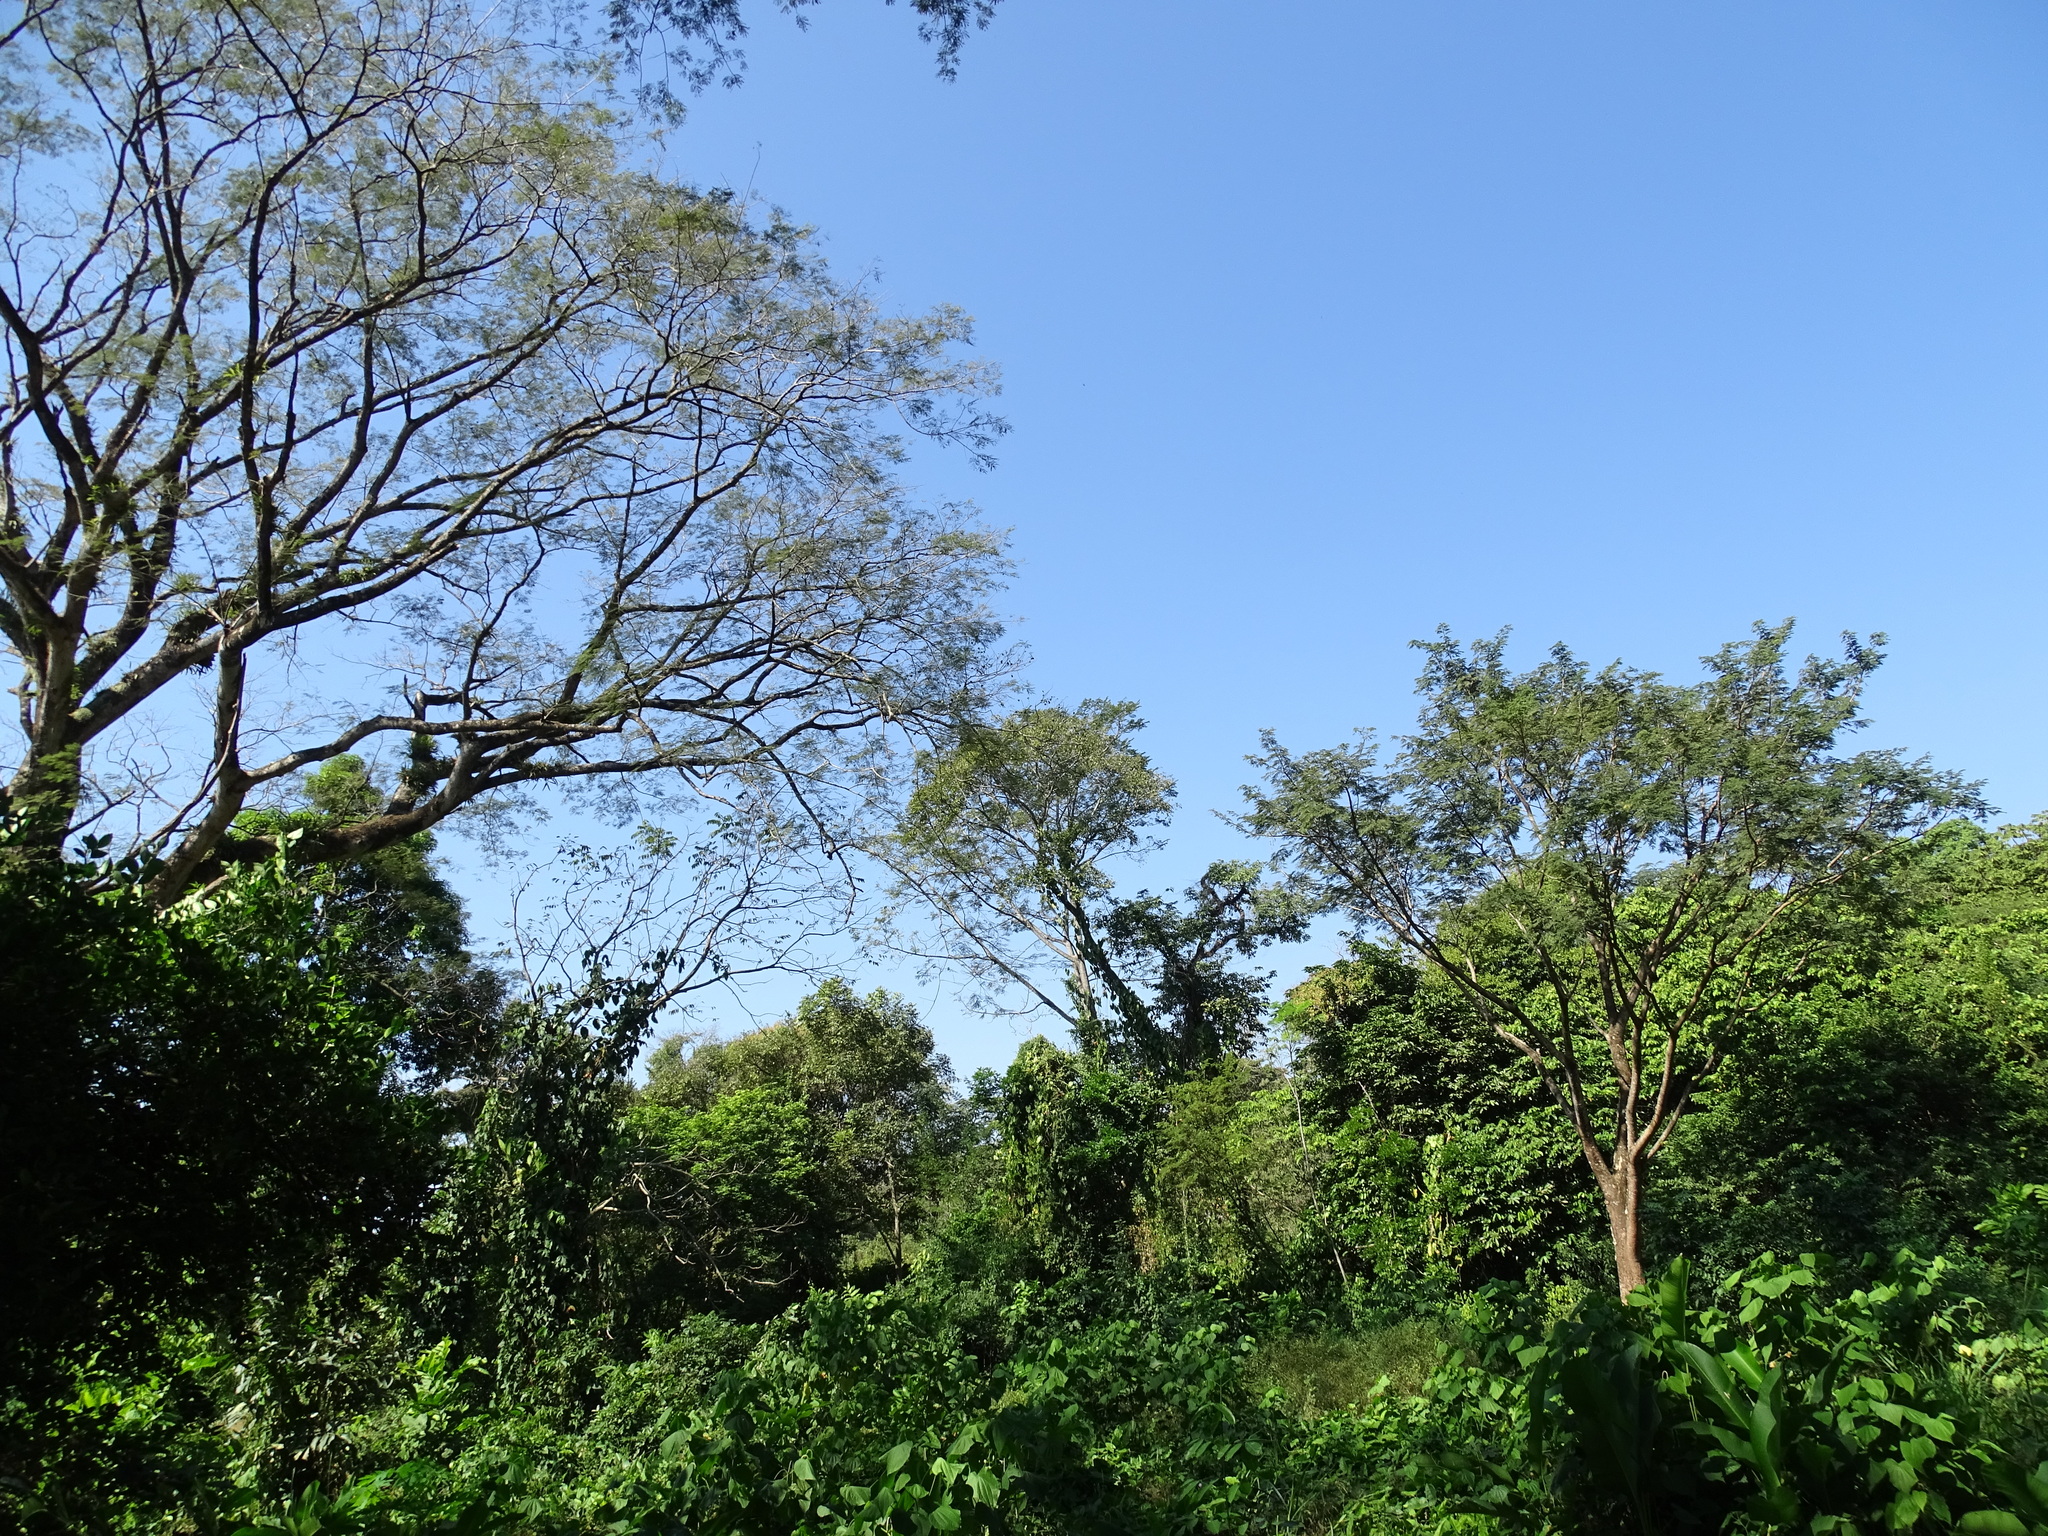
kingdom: Plantae
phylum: Tracheophyta
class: Magnoliopsida
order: Fabales
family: Fabaceae
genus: Enterolobium
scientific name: Enterolobium cyclocarpum
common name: Ear tree
